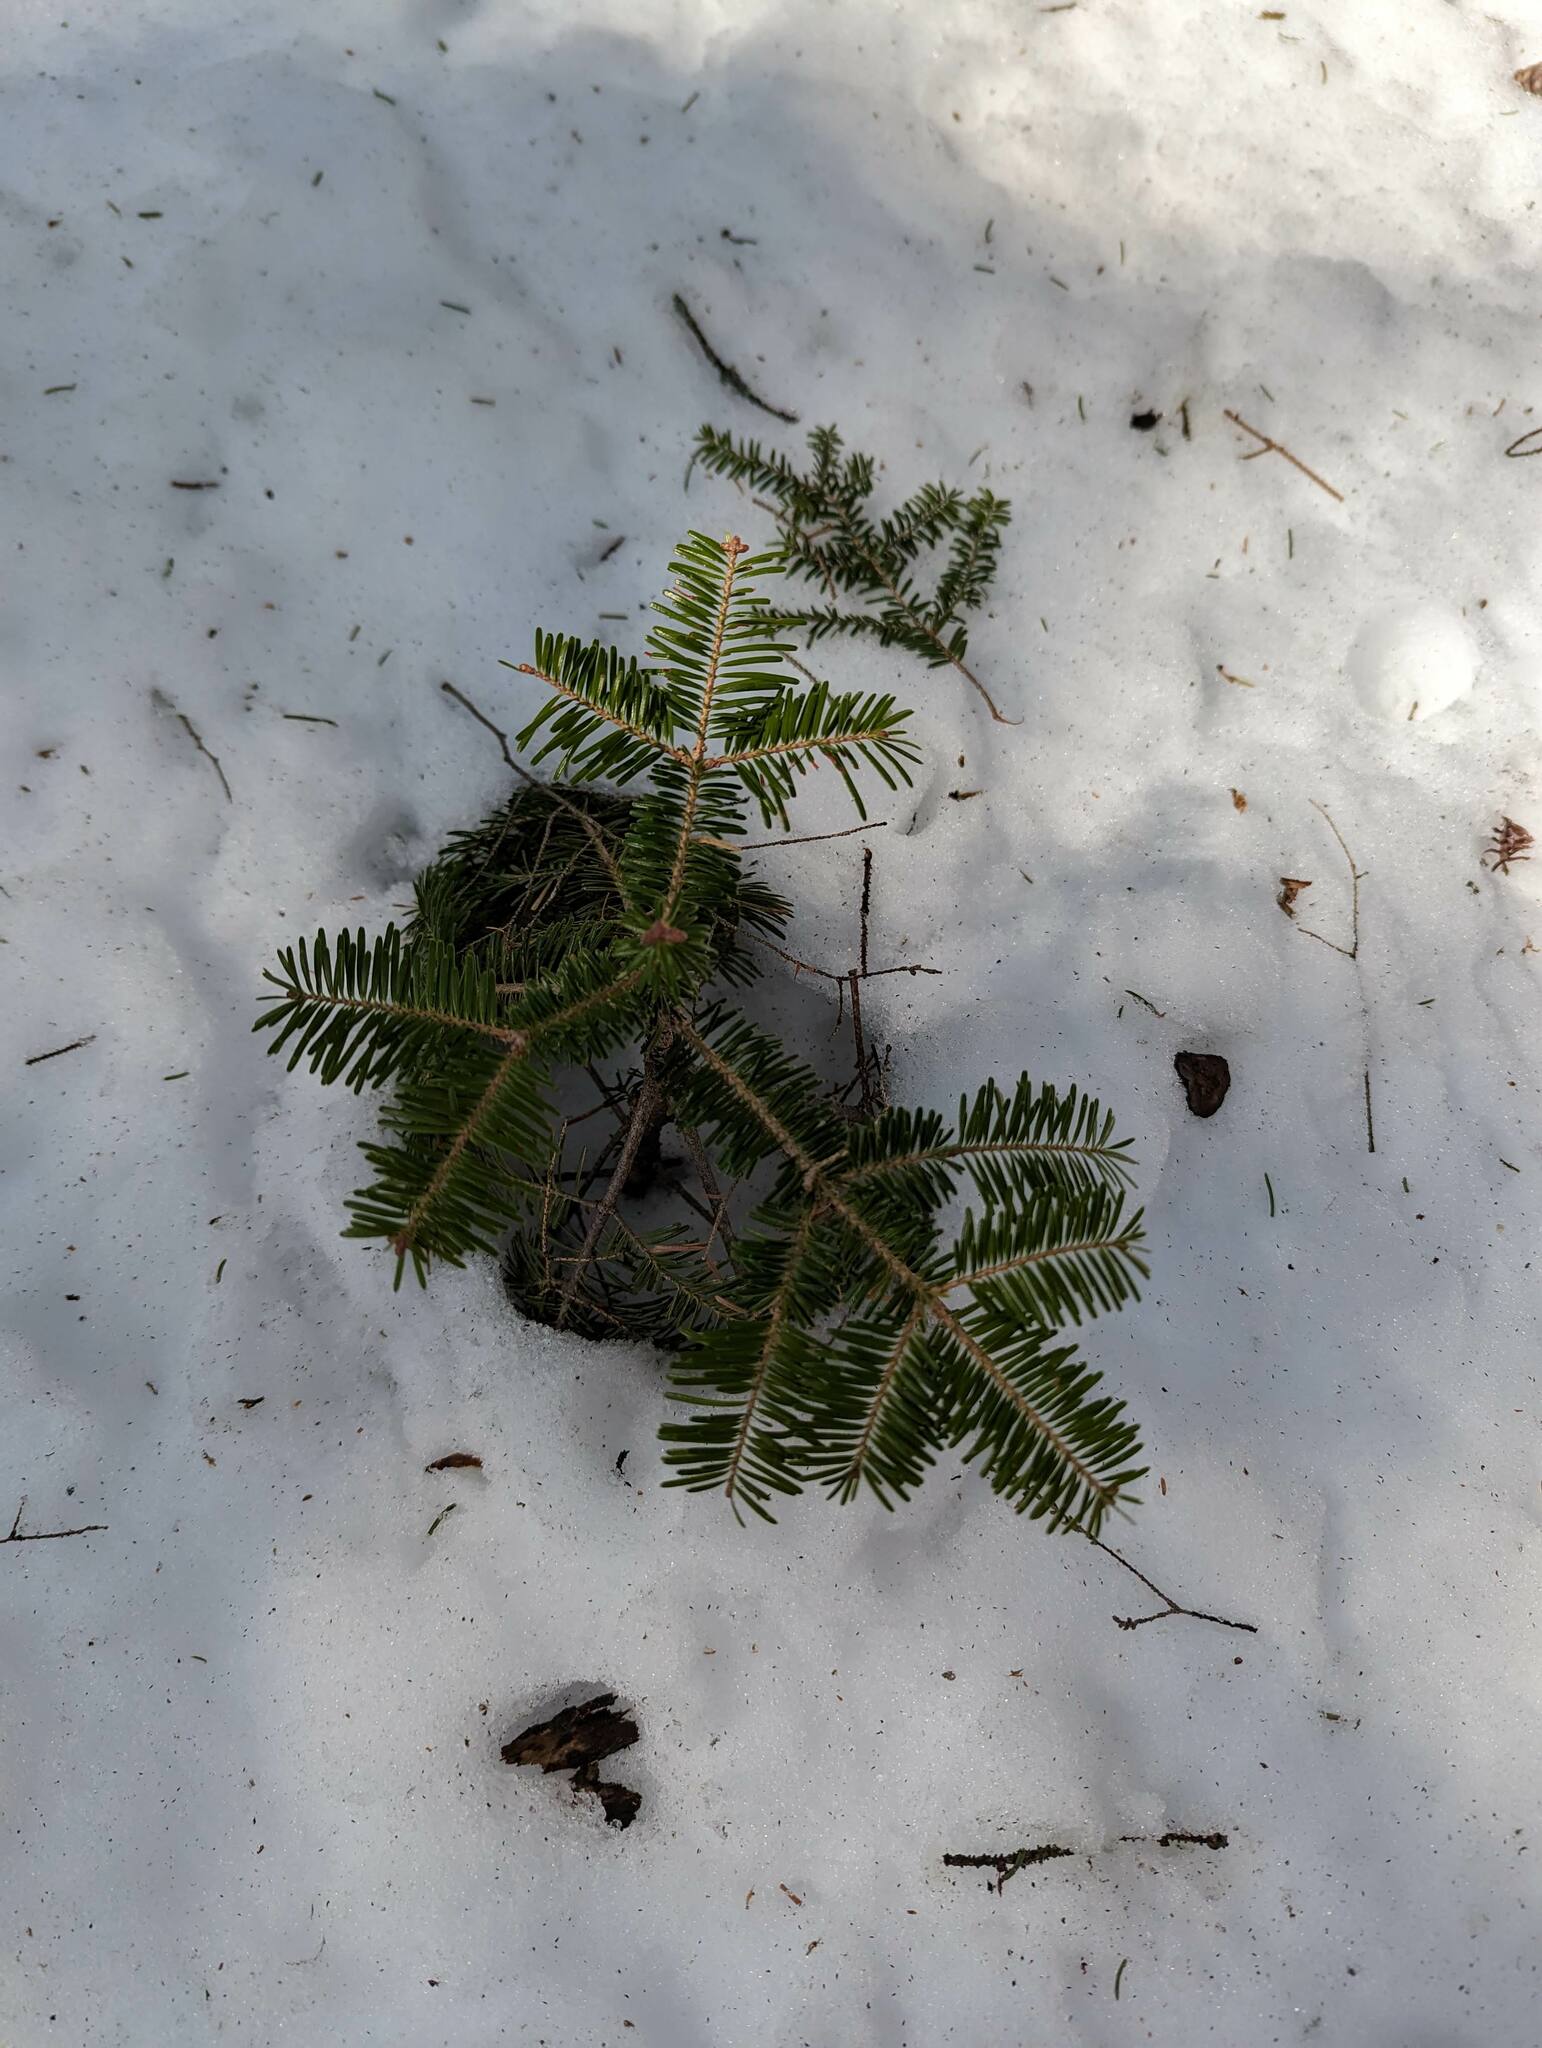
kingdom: Plantae
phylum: Tracheophyta
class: Pinopsida
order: Pinales
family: Pinaceae
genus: Abies
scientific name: Abies balsamea
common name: Balsam fir
